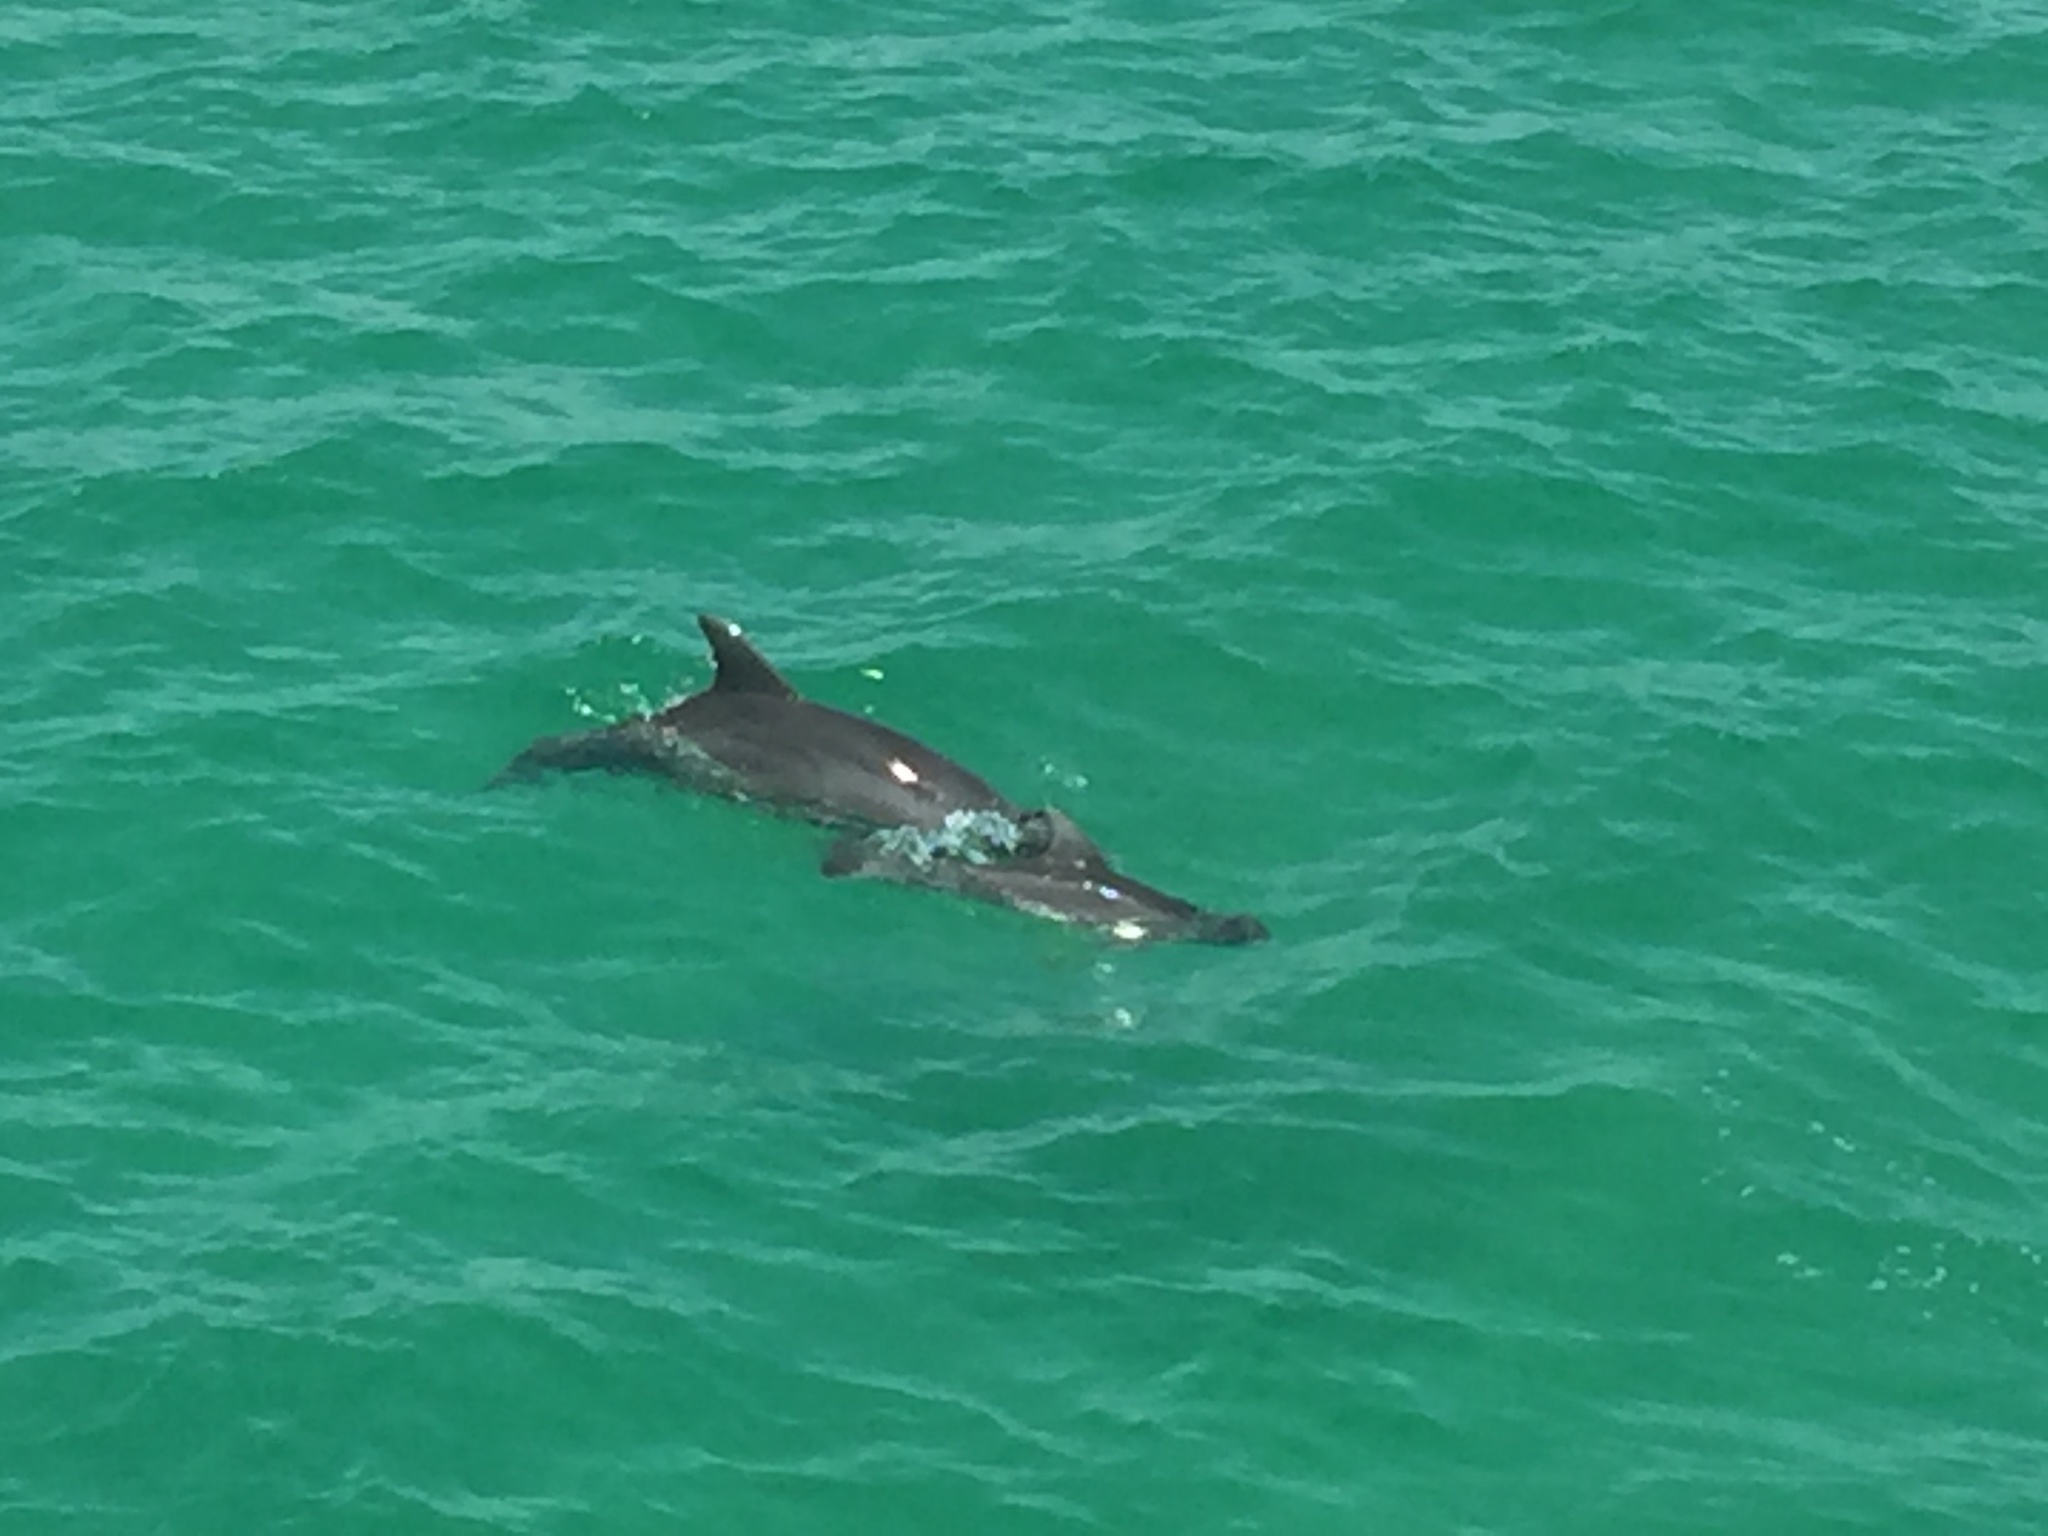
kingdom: Animalia
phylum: Chordata
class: Mammalia
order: Cetacea
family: Delphinidae
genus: Tursiops
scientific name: Tursiops truncatus
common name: Bottlenose dolphin
